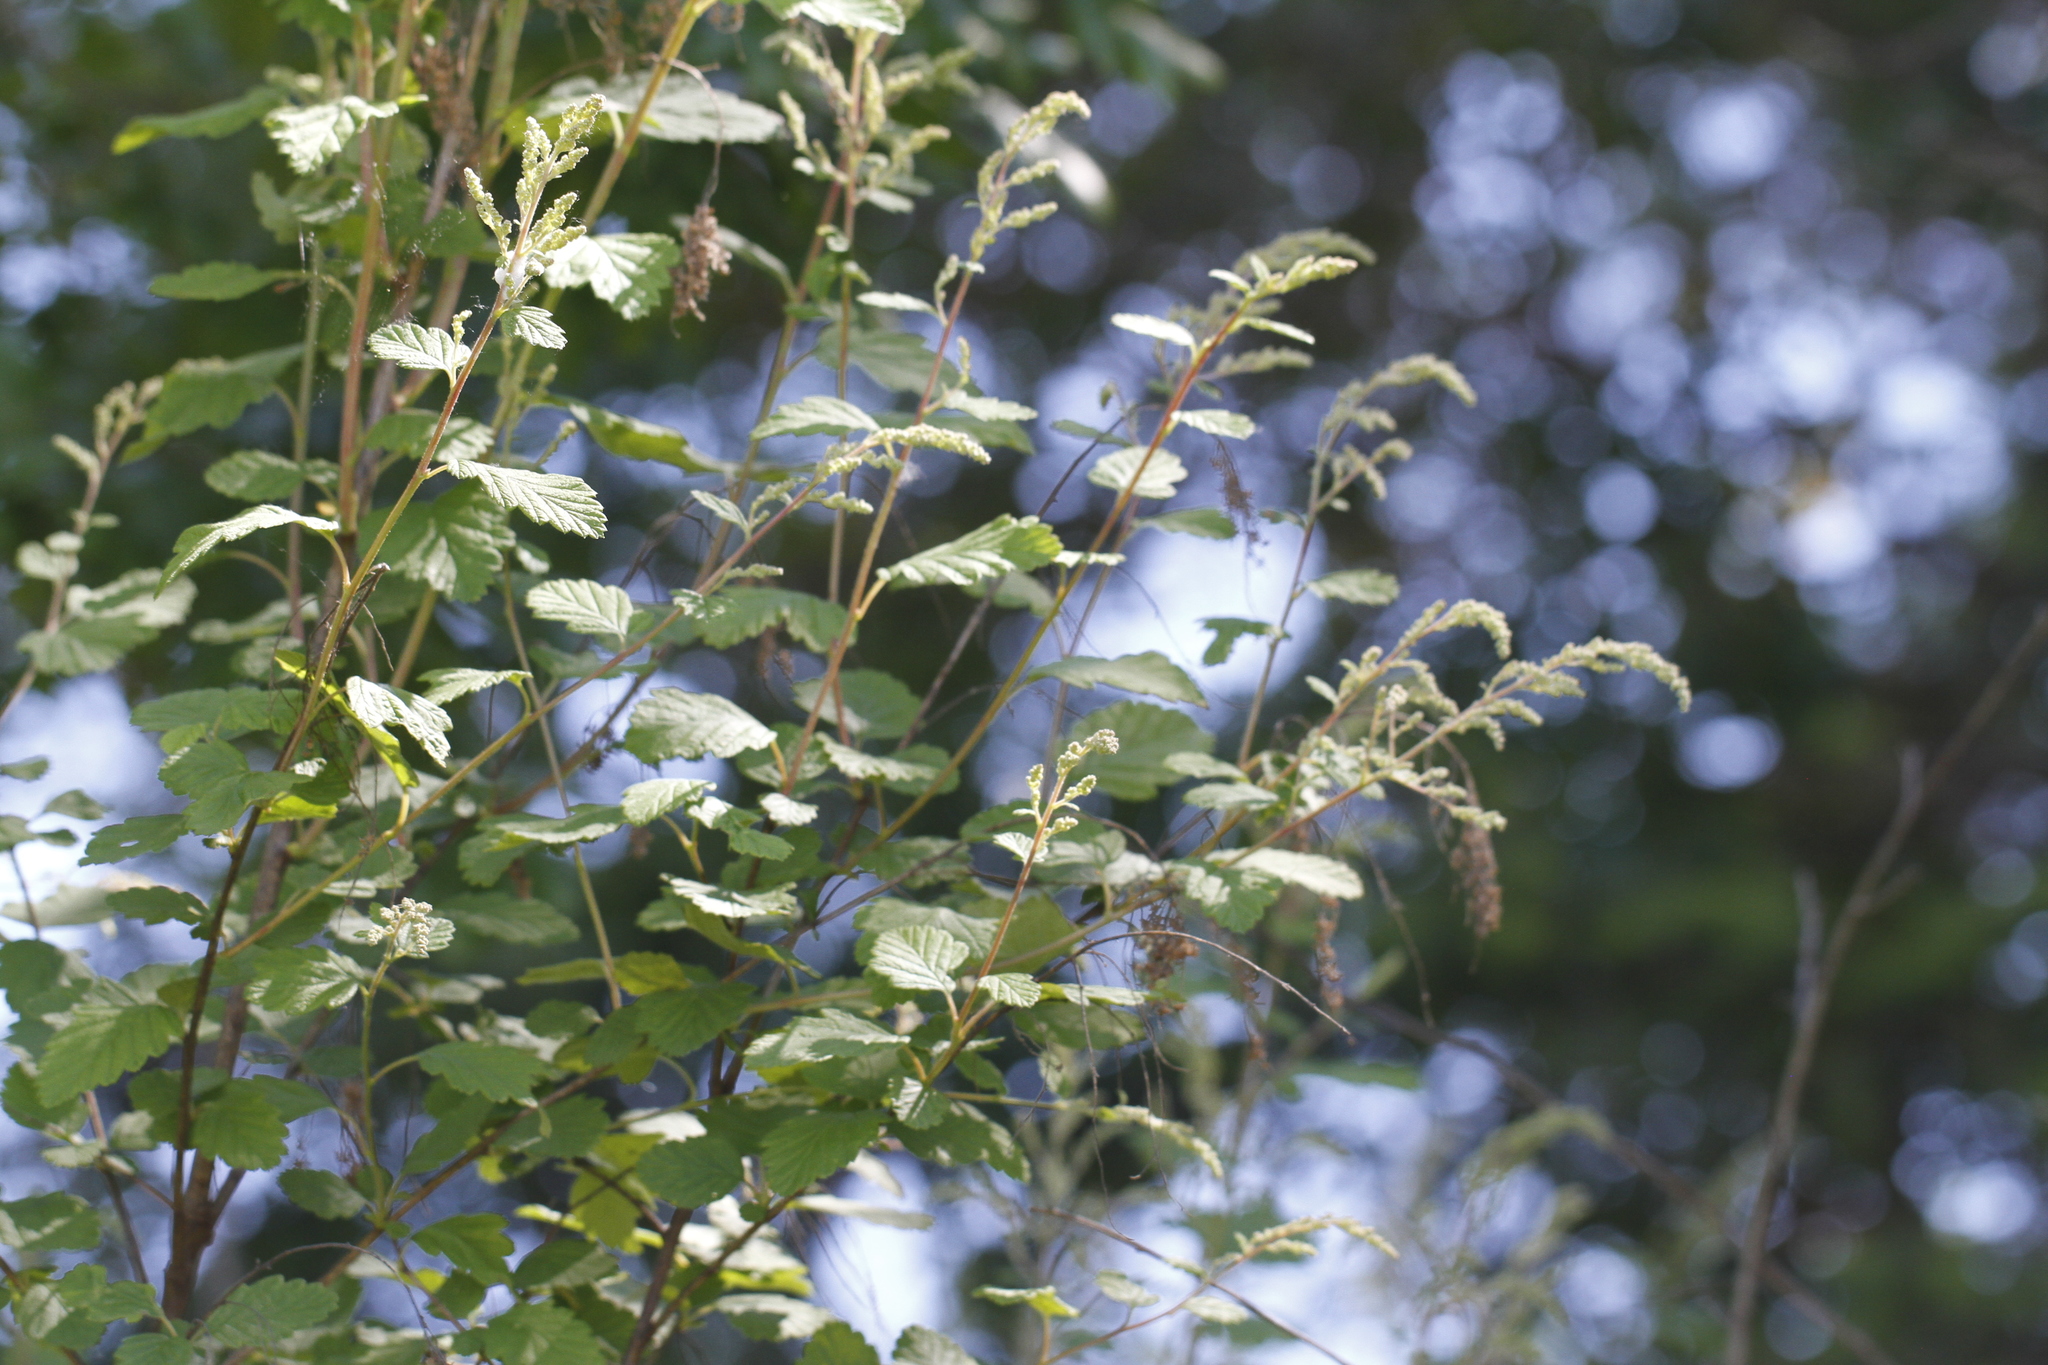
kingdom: Plantae
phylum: Tracheophyta
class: Magnoliopsida
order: Rosales
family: Rosaceae
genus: Holodiscus
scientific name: Holodiscus discolor
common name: Oceanspray
